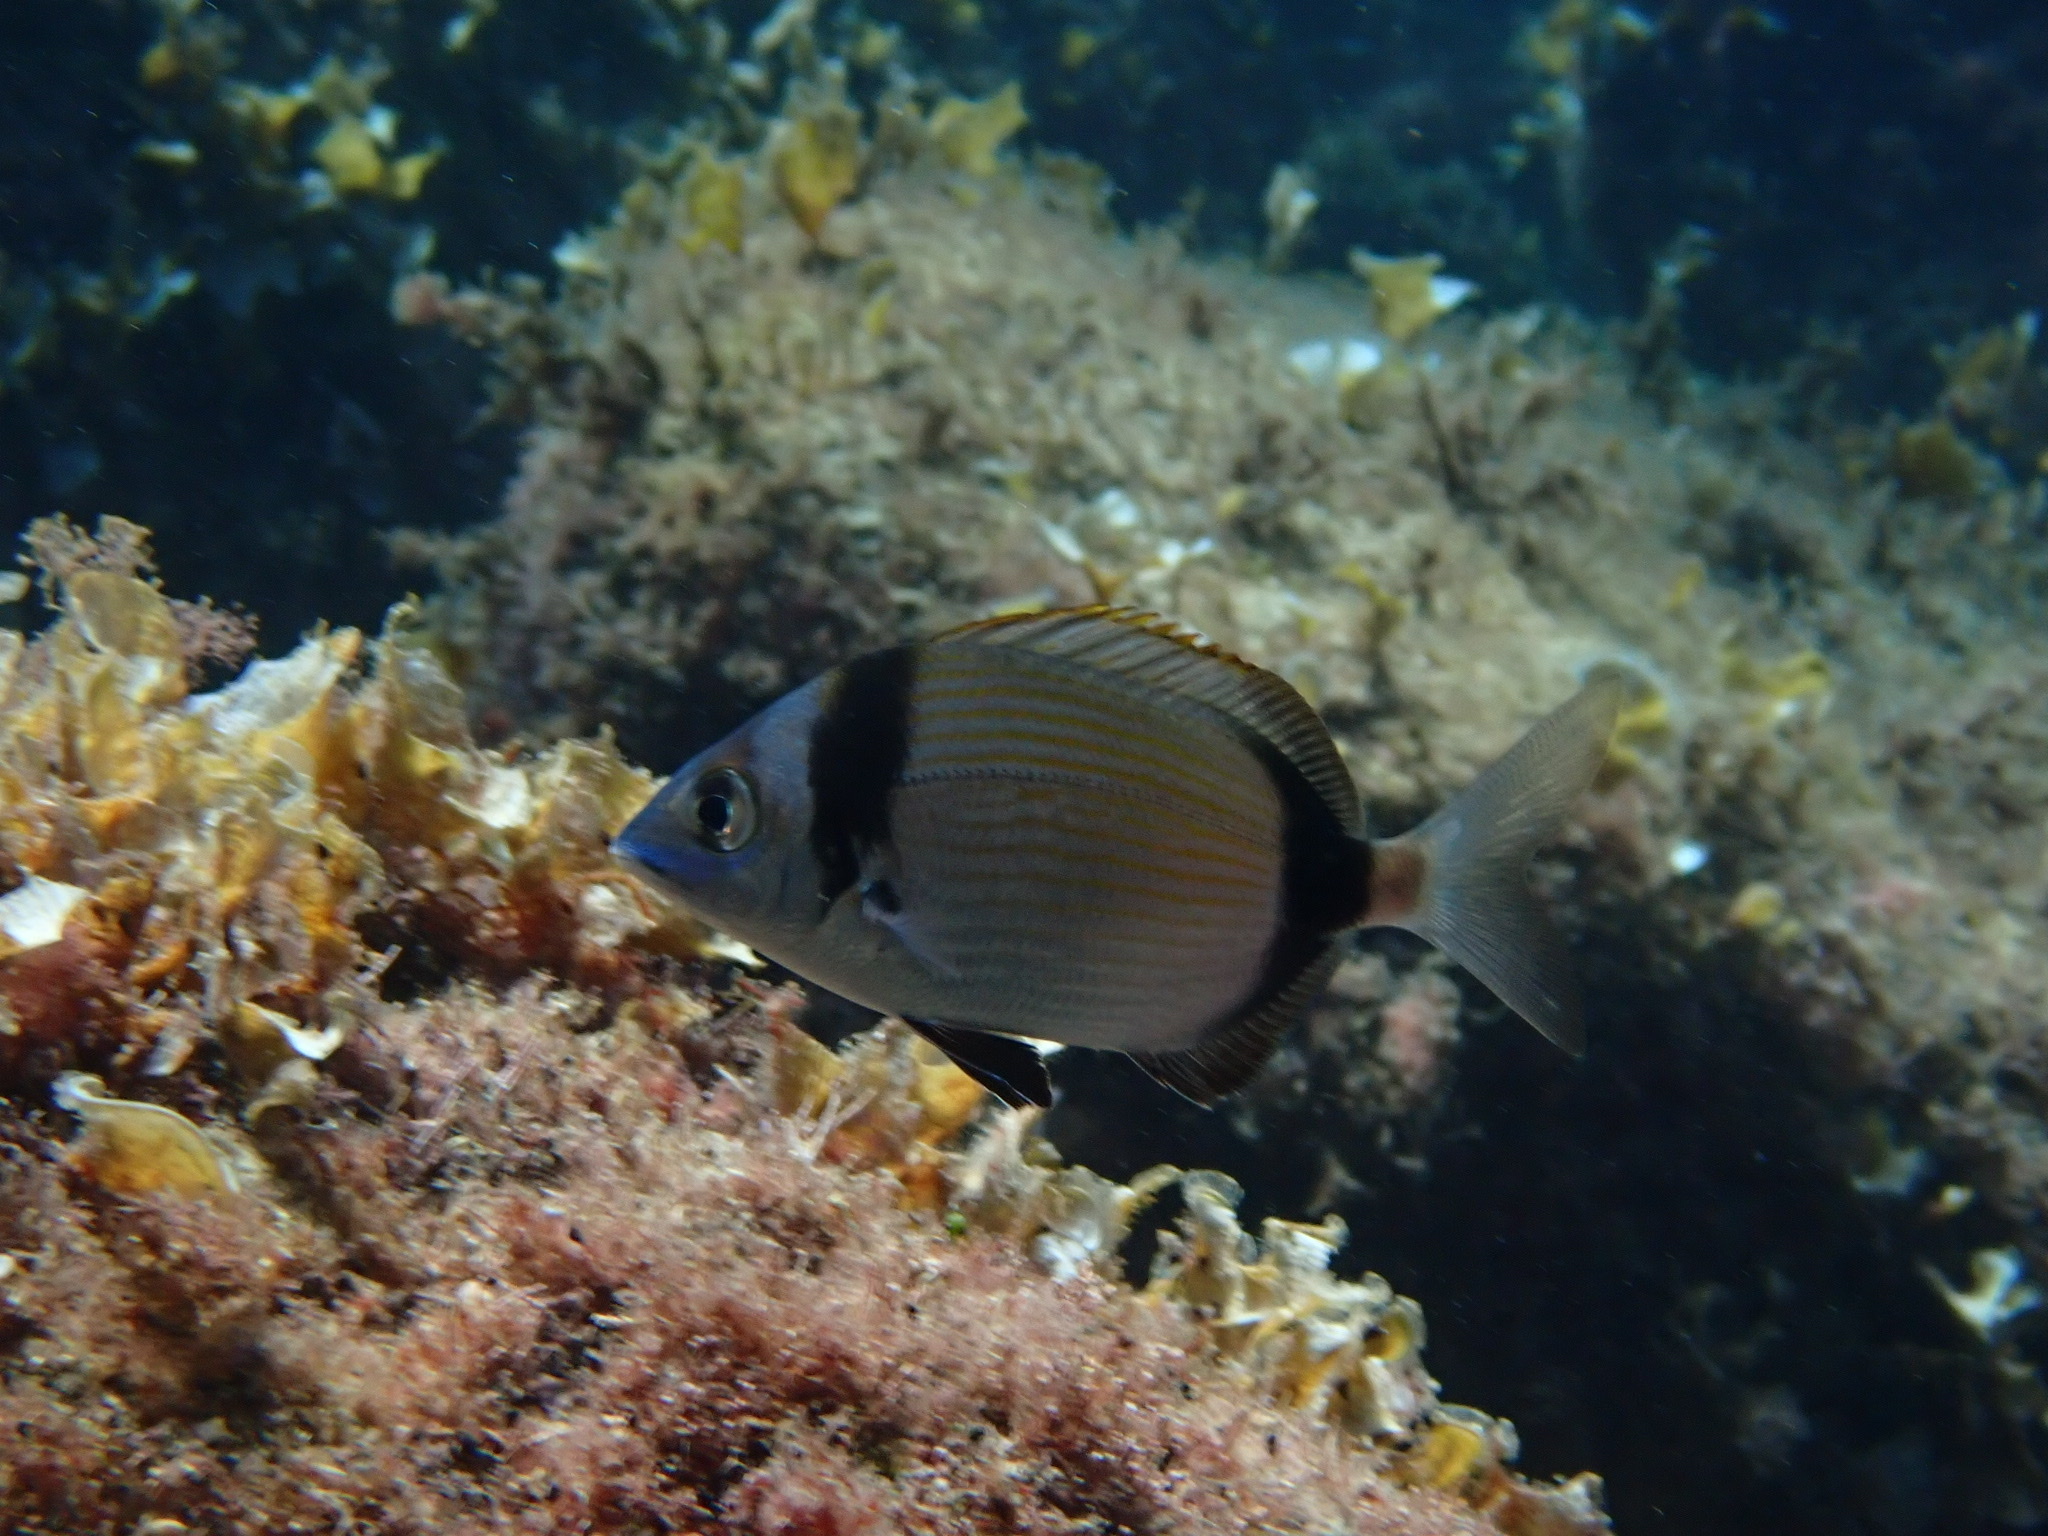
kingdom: Animalia
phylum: Chordata
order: Perciformes
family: Sparidae
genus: Diplodus
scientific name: Diplodus vulgaris
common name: Common two-banded seabream
